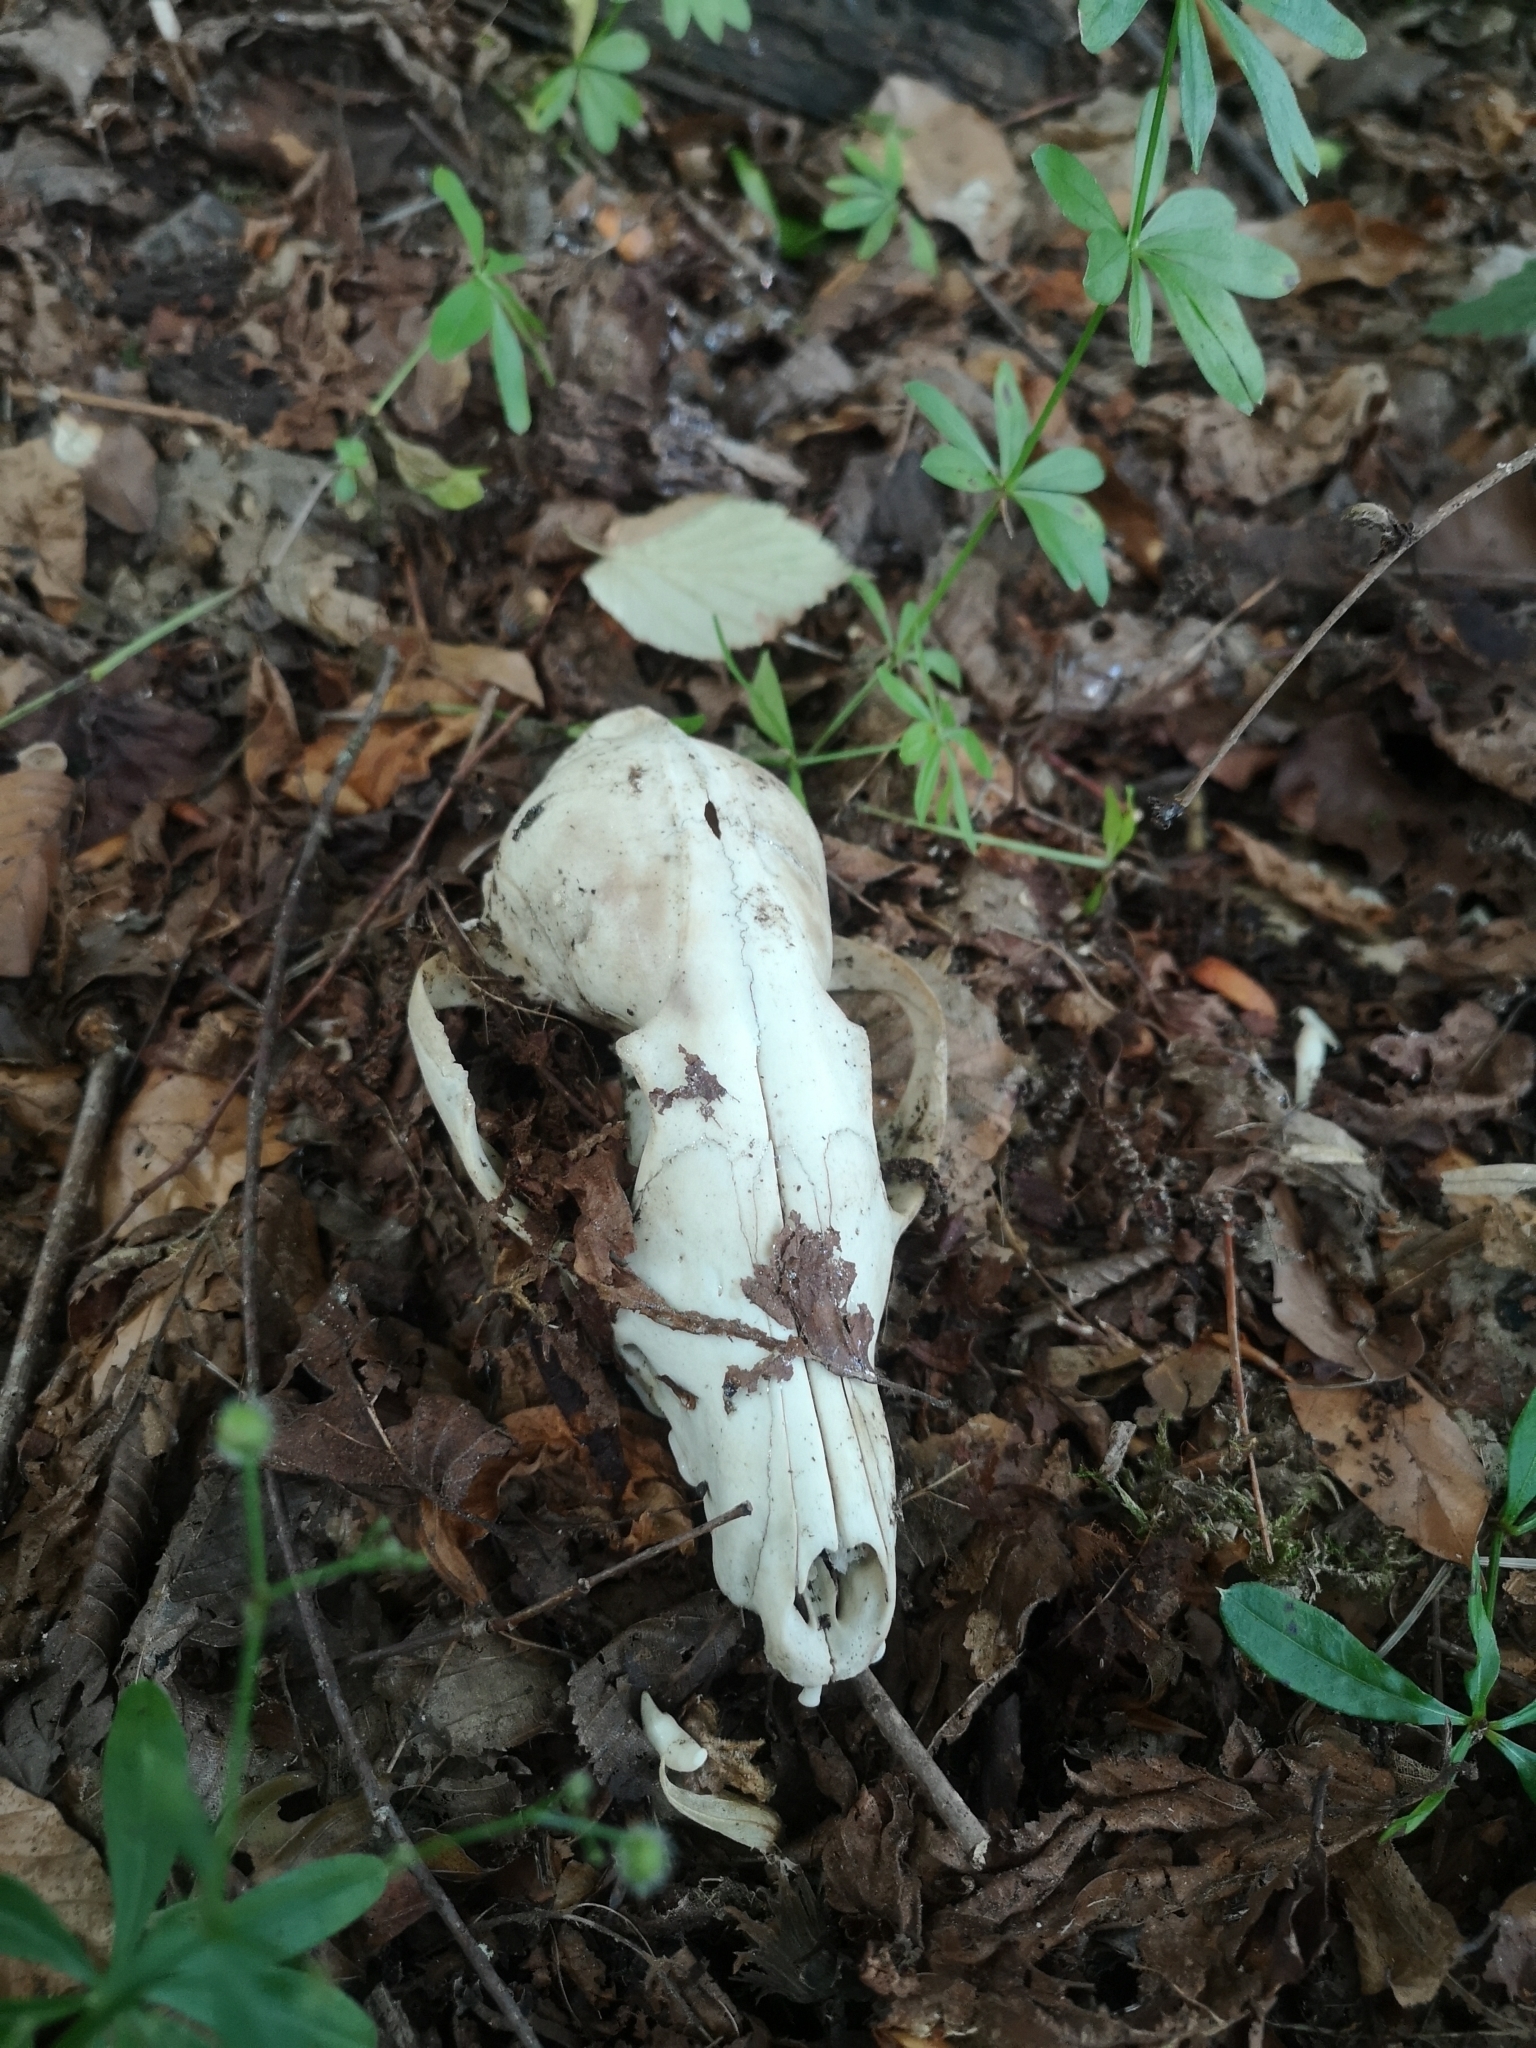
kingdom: Animalia
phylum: Chordata
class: Mammalia
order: Carnivora
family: Canidae
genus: Vulpes
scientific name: Vulpes vulpes
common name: Red fox
